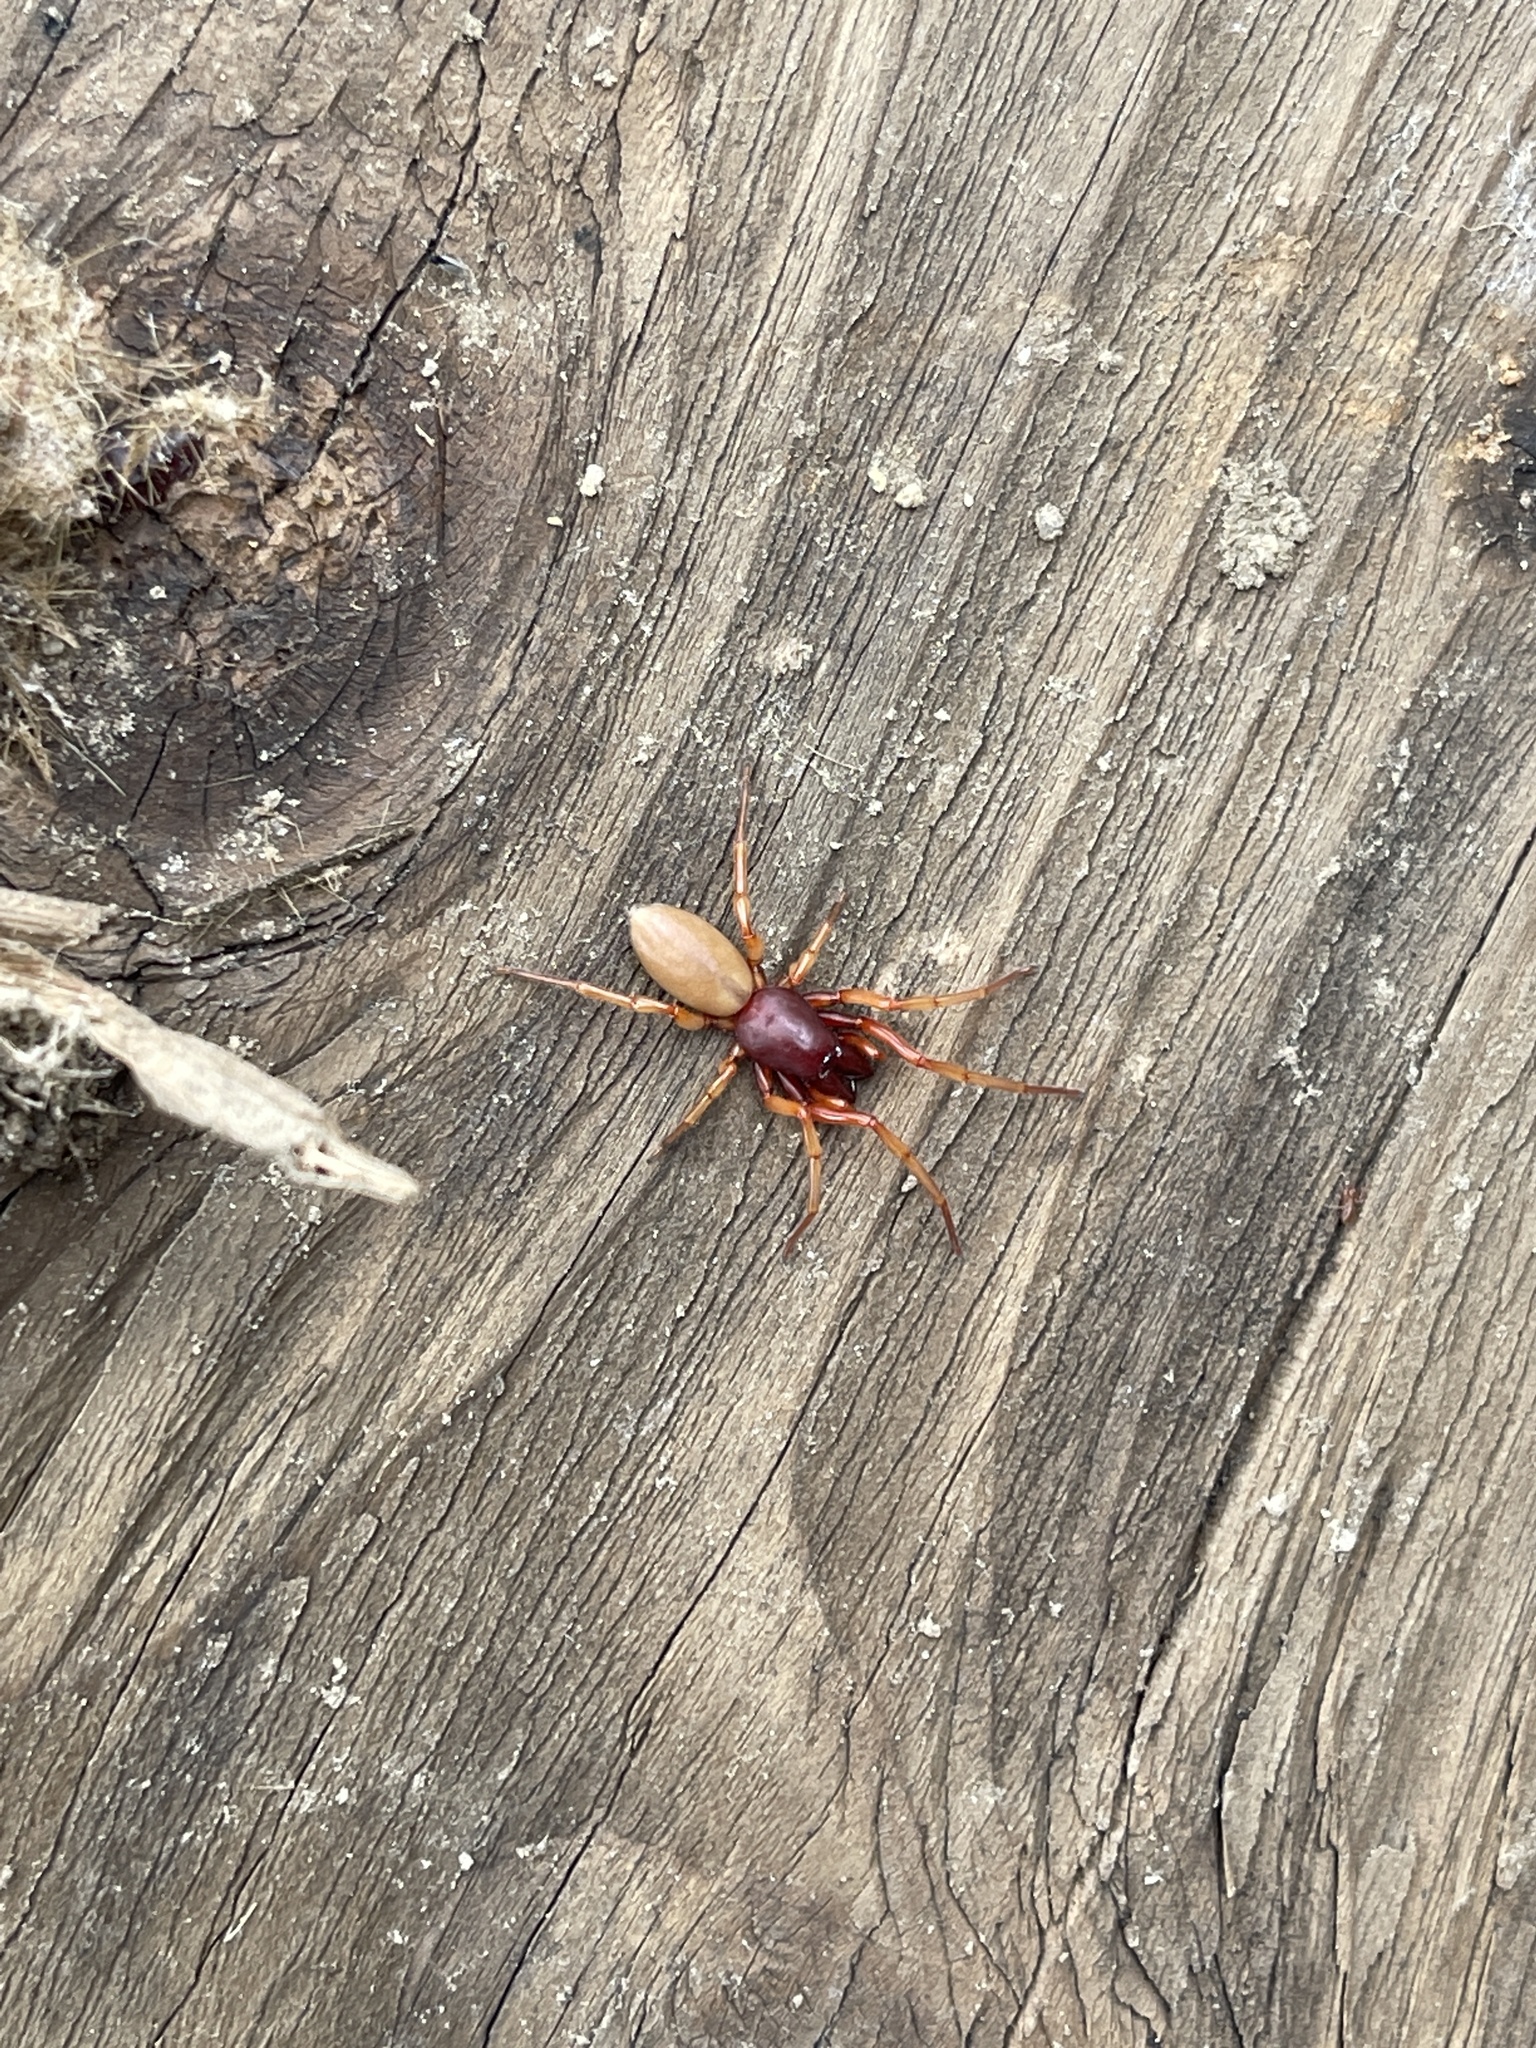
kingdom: Animalia
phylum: Arthropoda
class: Arachnida
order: Araneae
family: Dysderidae
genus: Dysdera
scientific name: Dysdera crocata
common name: Woodlouse spider
